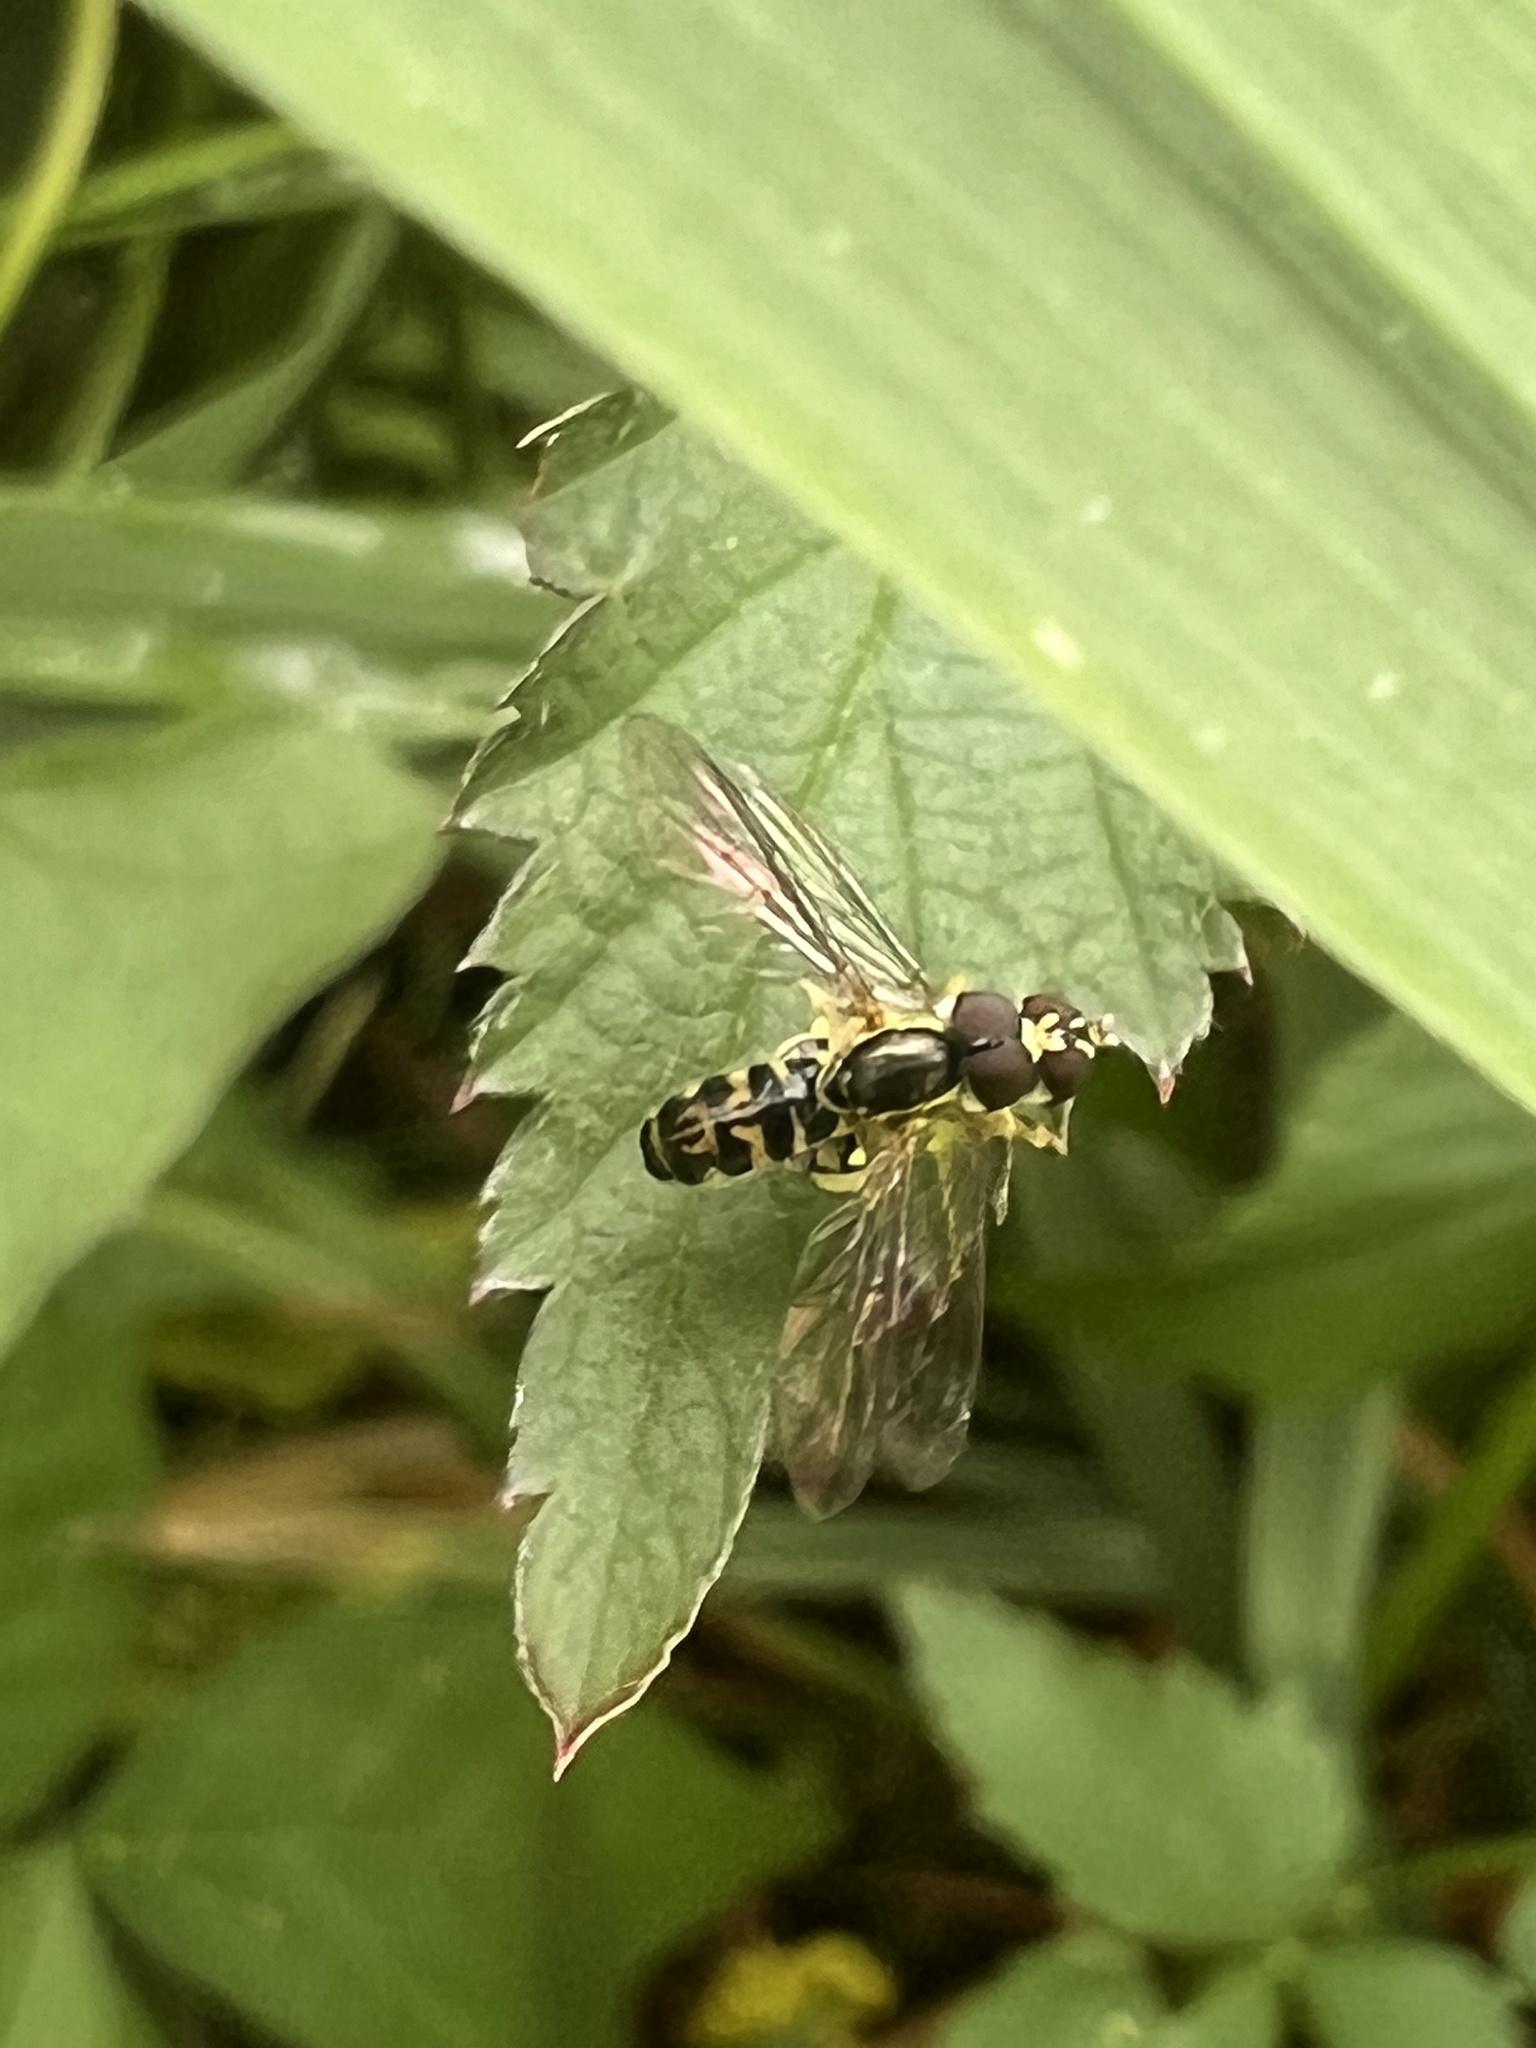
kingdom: Animalia
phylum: Arthropoda
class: Insecta
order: Diptera
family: Syrphidae
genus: Toxomerus
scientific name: Toxomerus geminatus
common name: Eastern calligrapher
